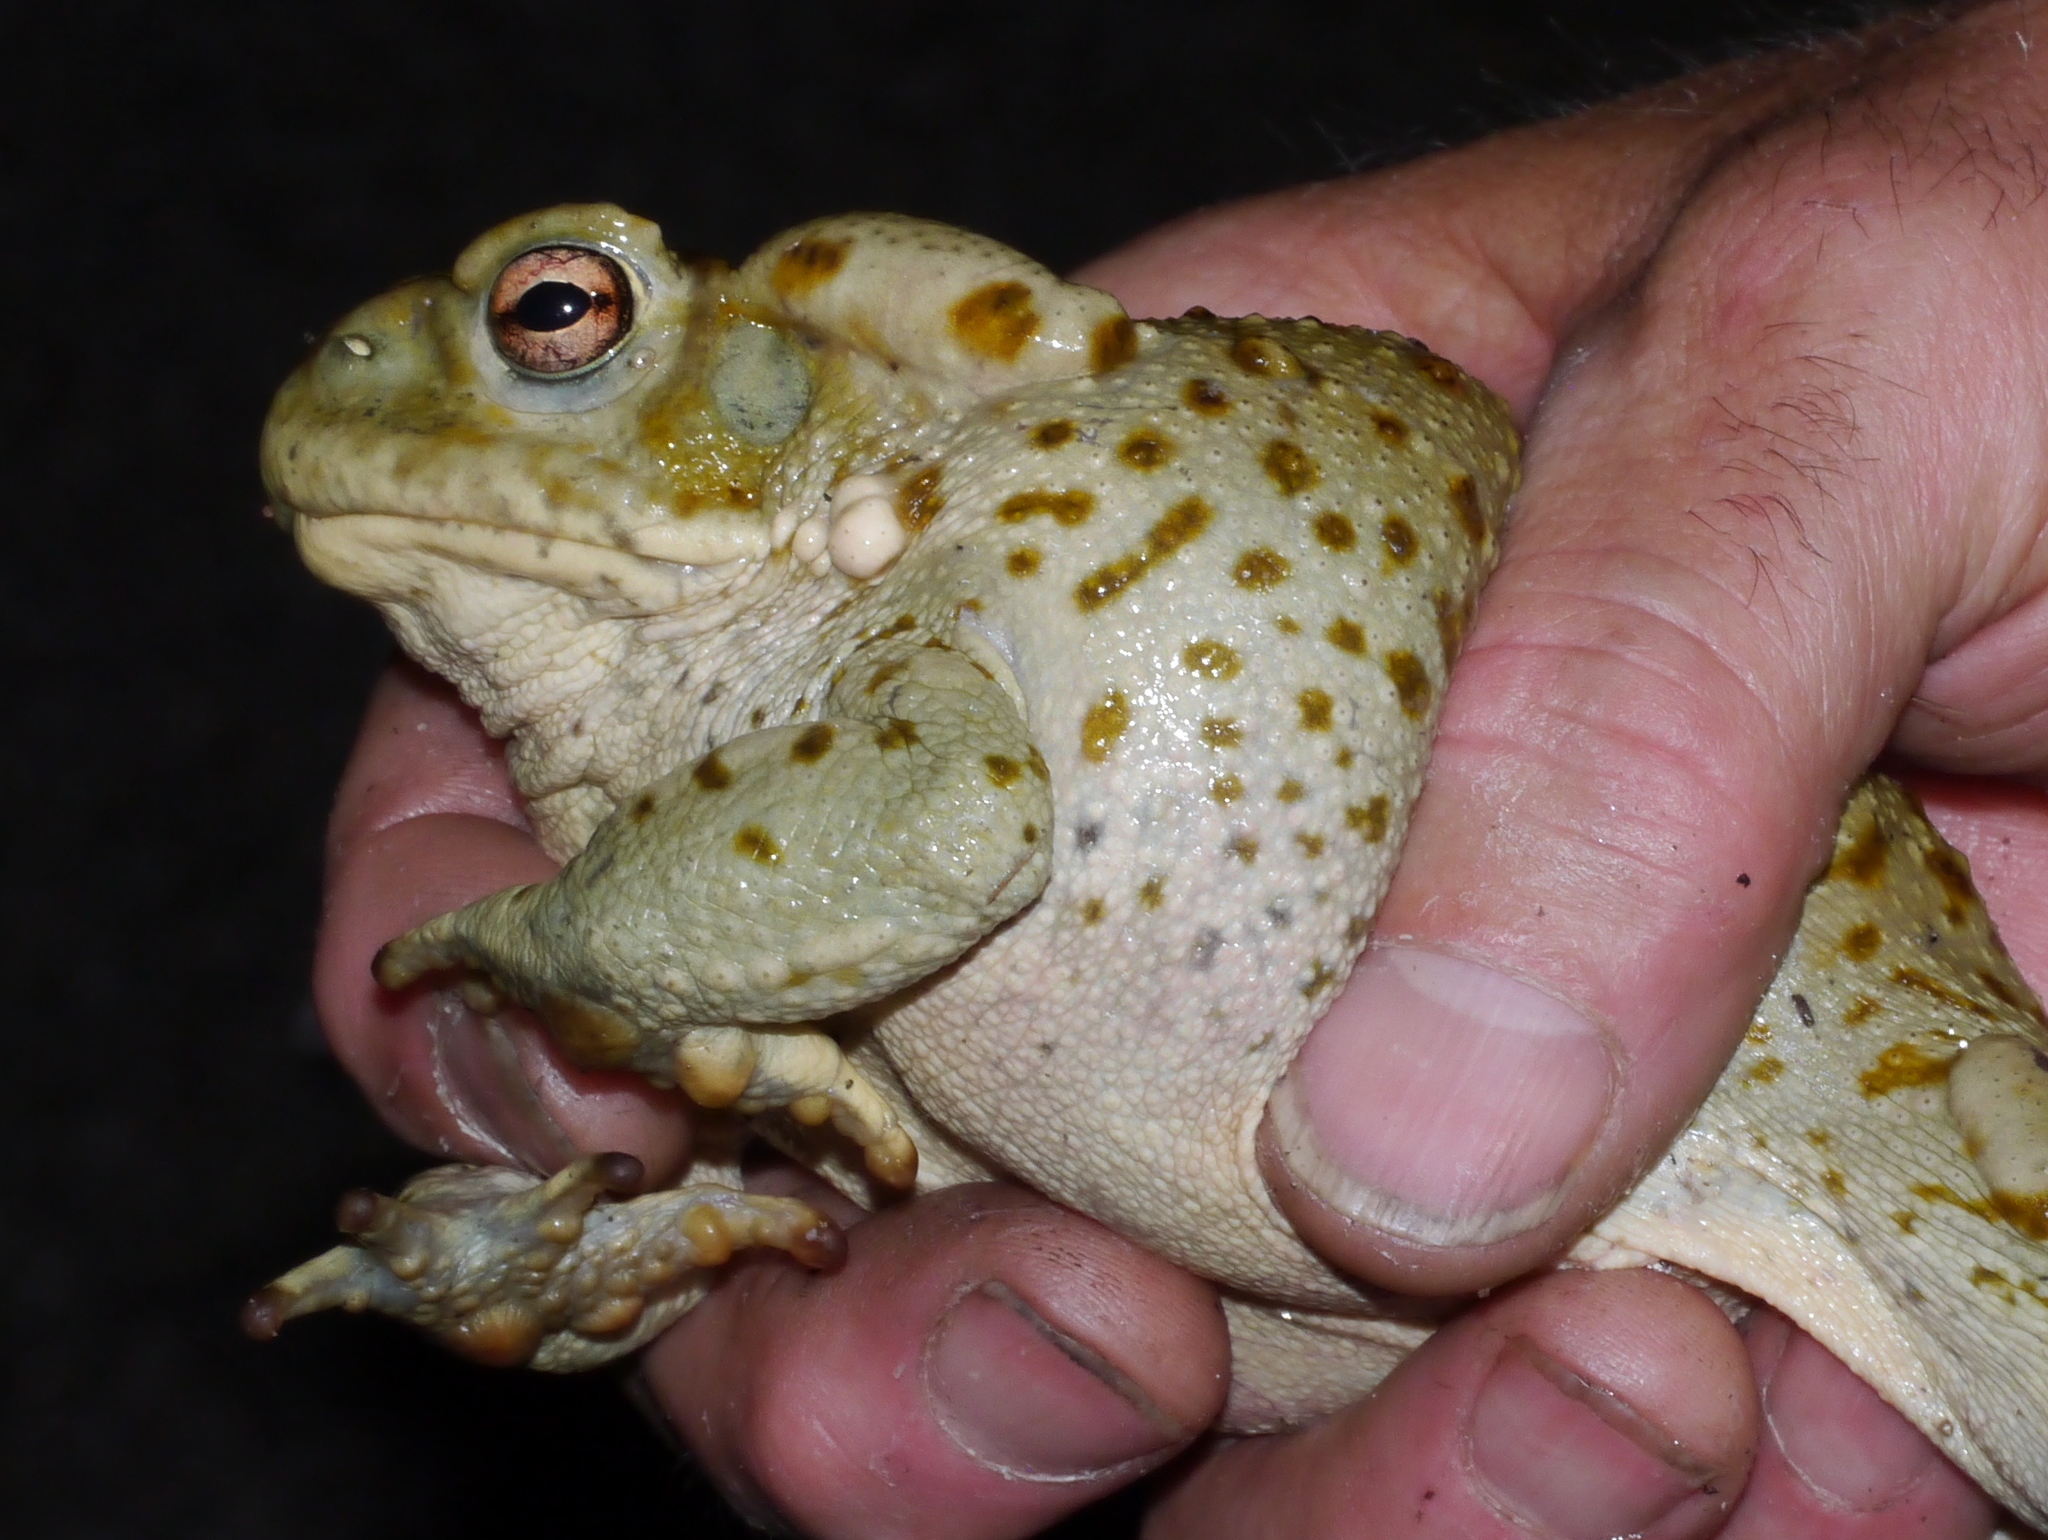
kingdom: Animalia
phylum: Chordata
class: Amphibia
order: Anura
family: Bufonidae
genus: Incilius
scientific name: Incilius alvarius
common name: Sonoran desert toad
